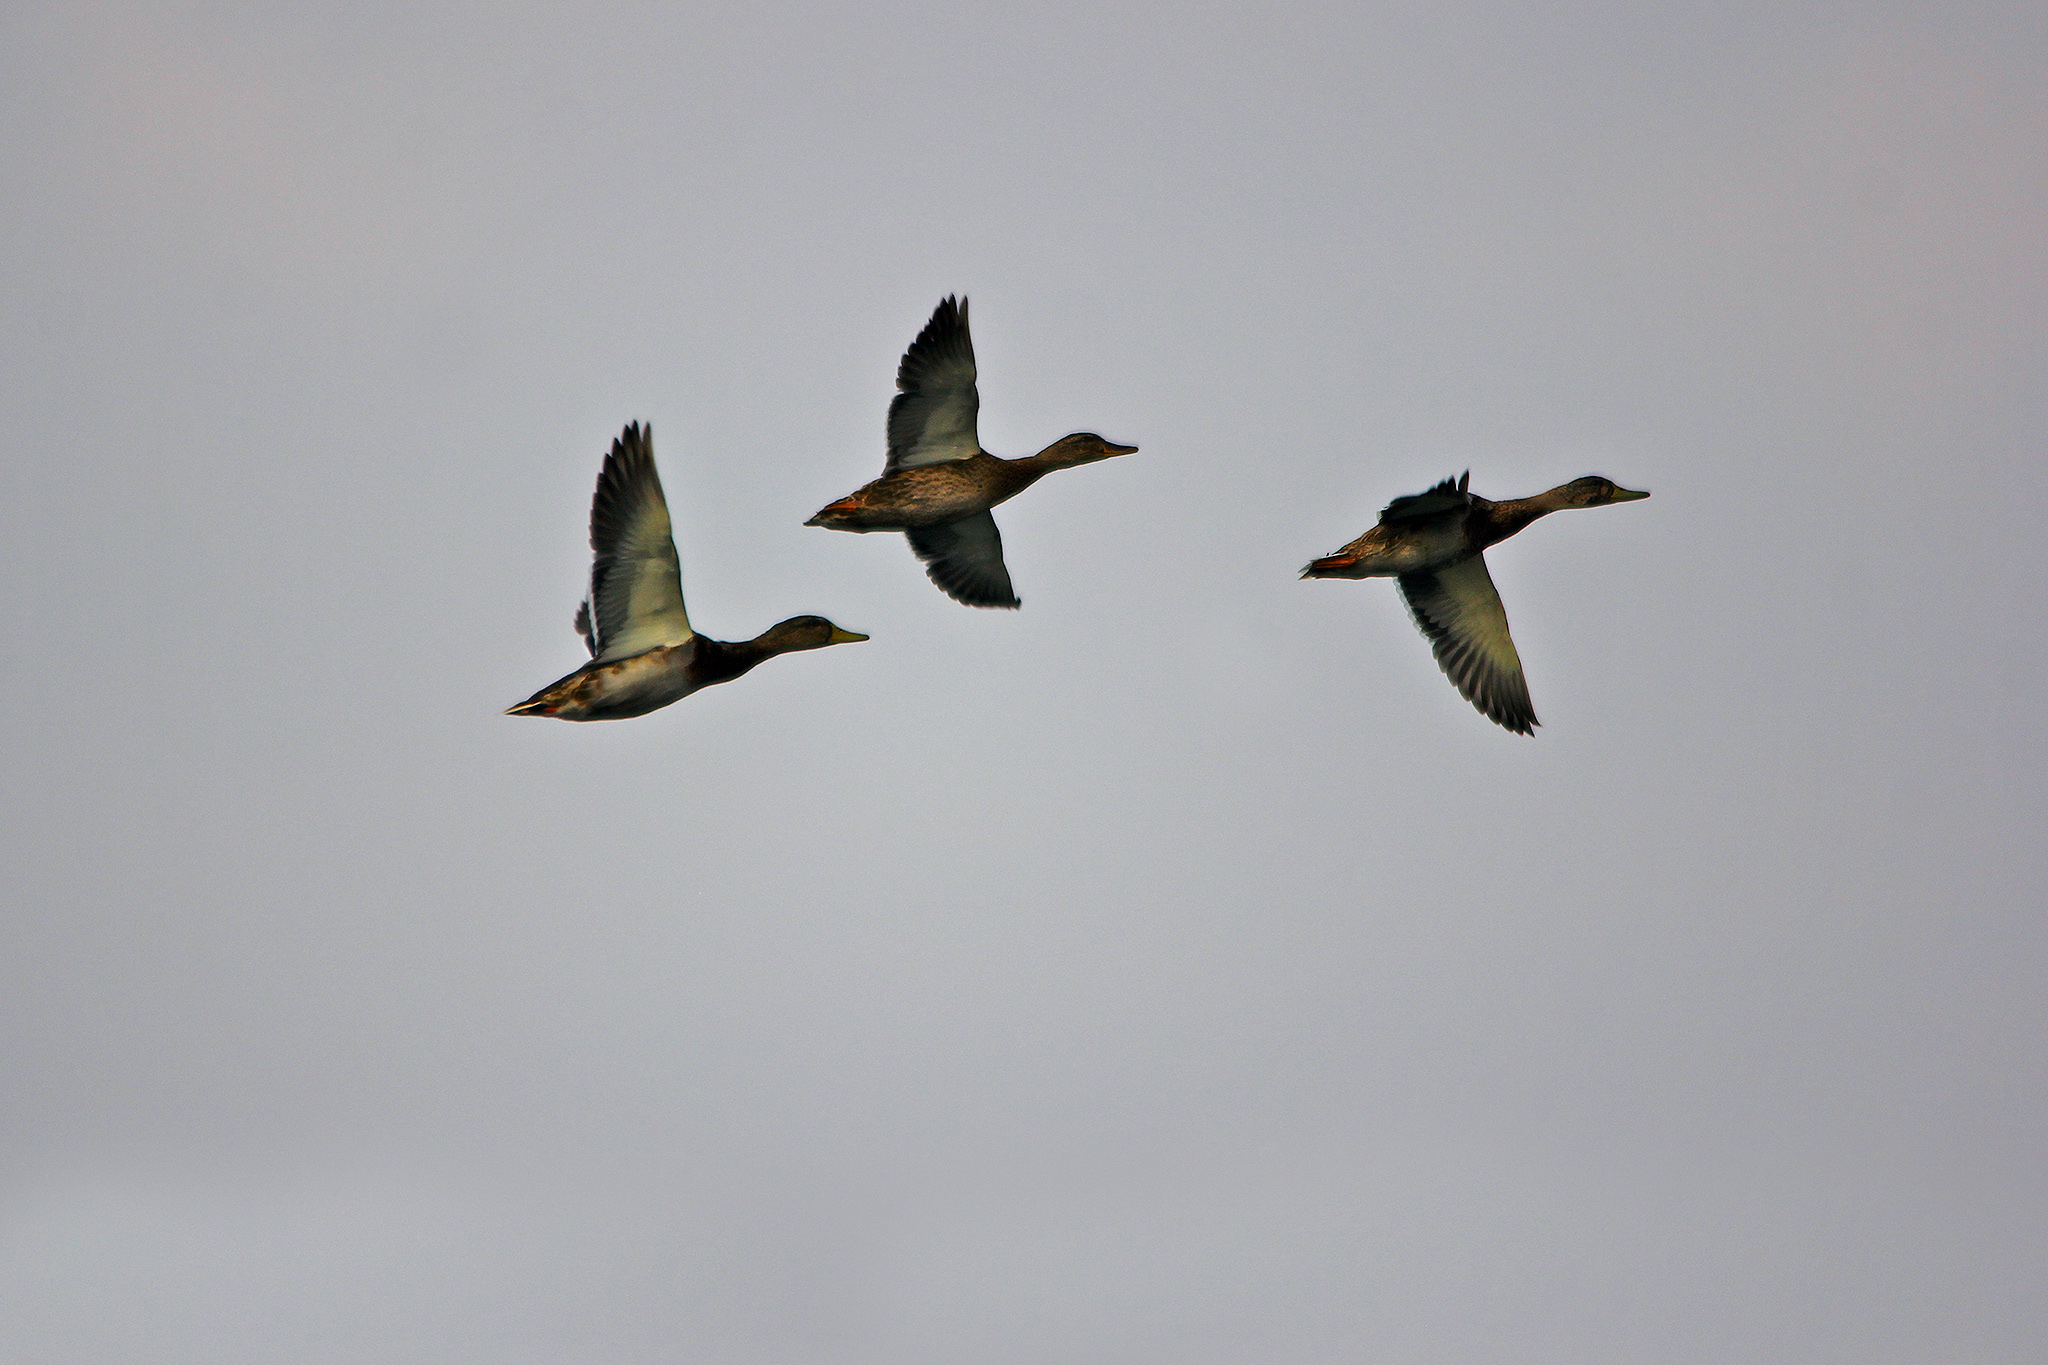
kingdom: Animalia
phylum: Chordata
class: Aves
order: Anseriformes
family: Anatidae
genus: Anas
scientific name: Anas platyrhynchos
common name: Mallard
